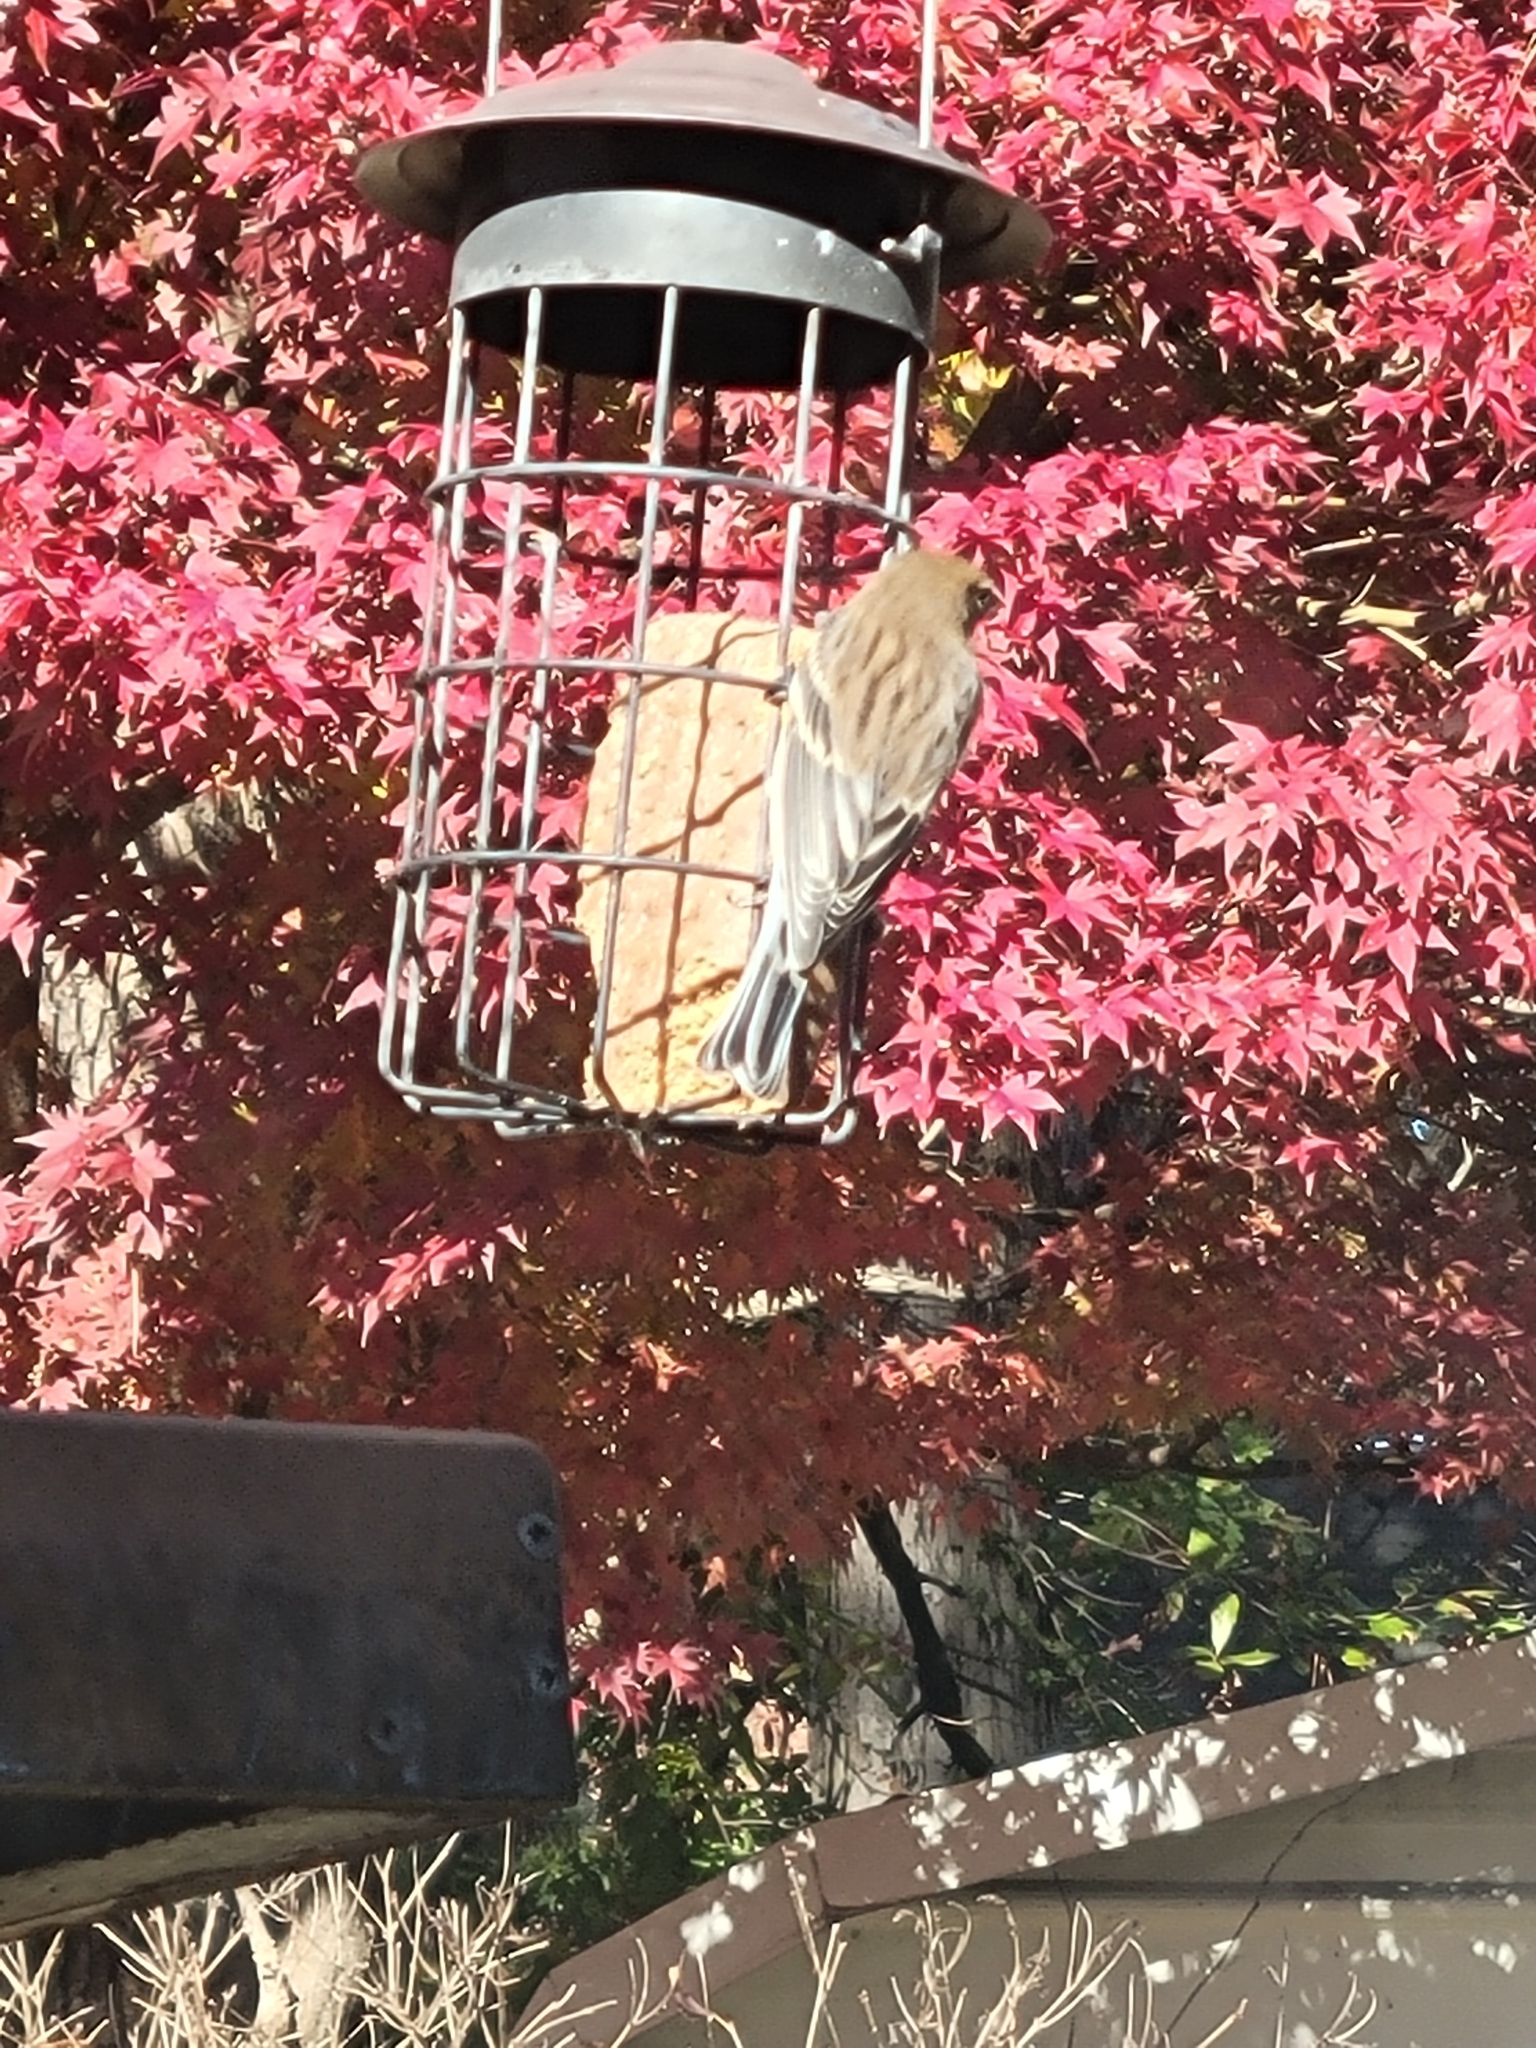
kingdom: Animalia
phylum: Chordata
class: Aves
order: Passeriformes
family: Parulidae
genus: Setophaga
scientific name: Setophaga coronata
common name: Myrtle warbler
